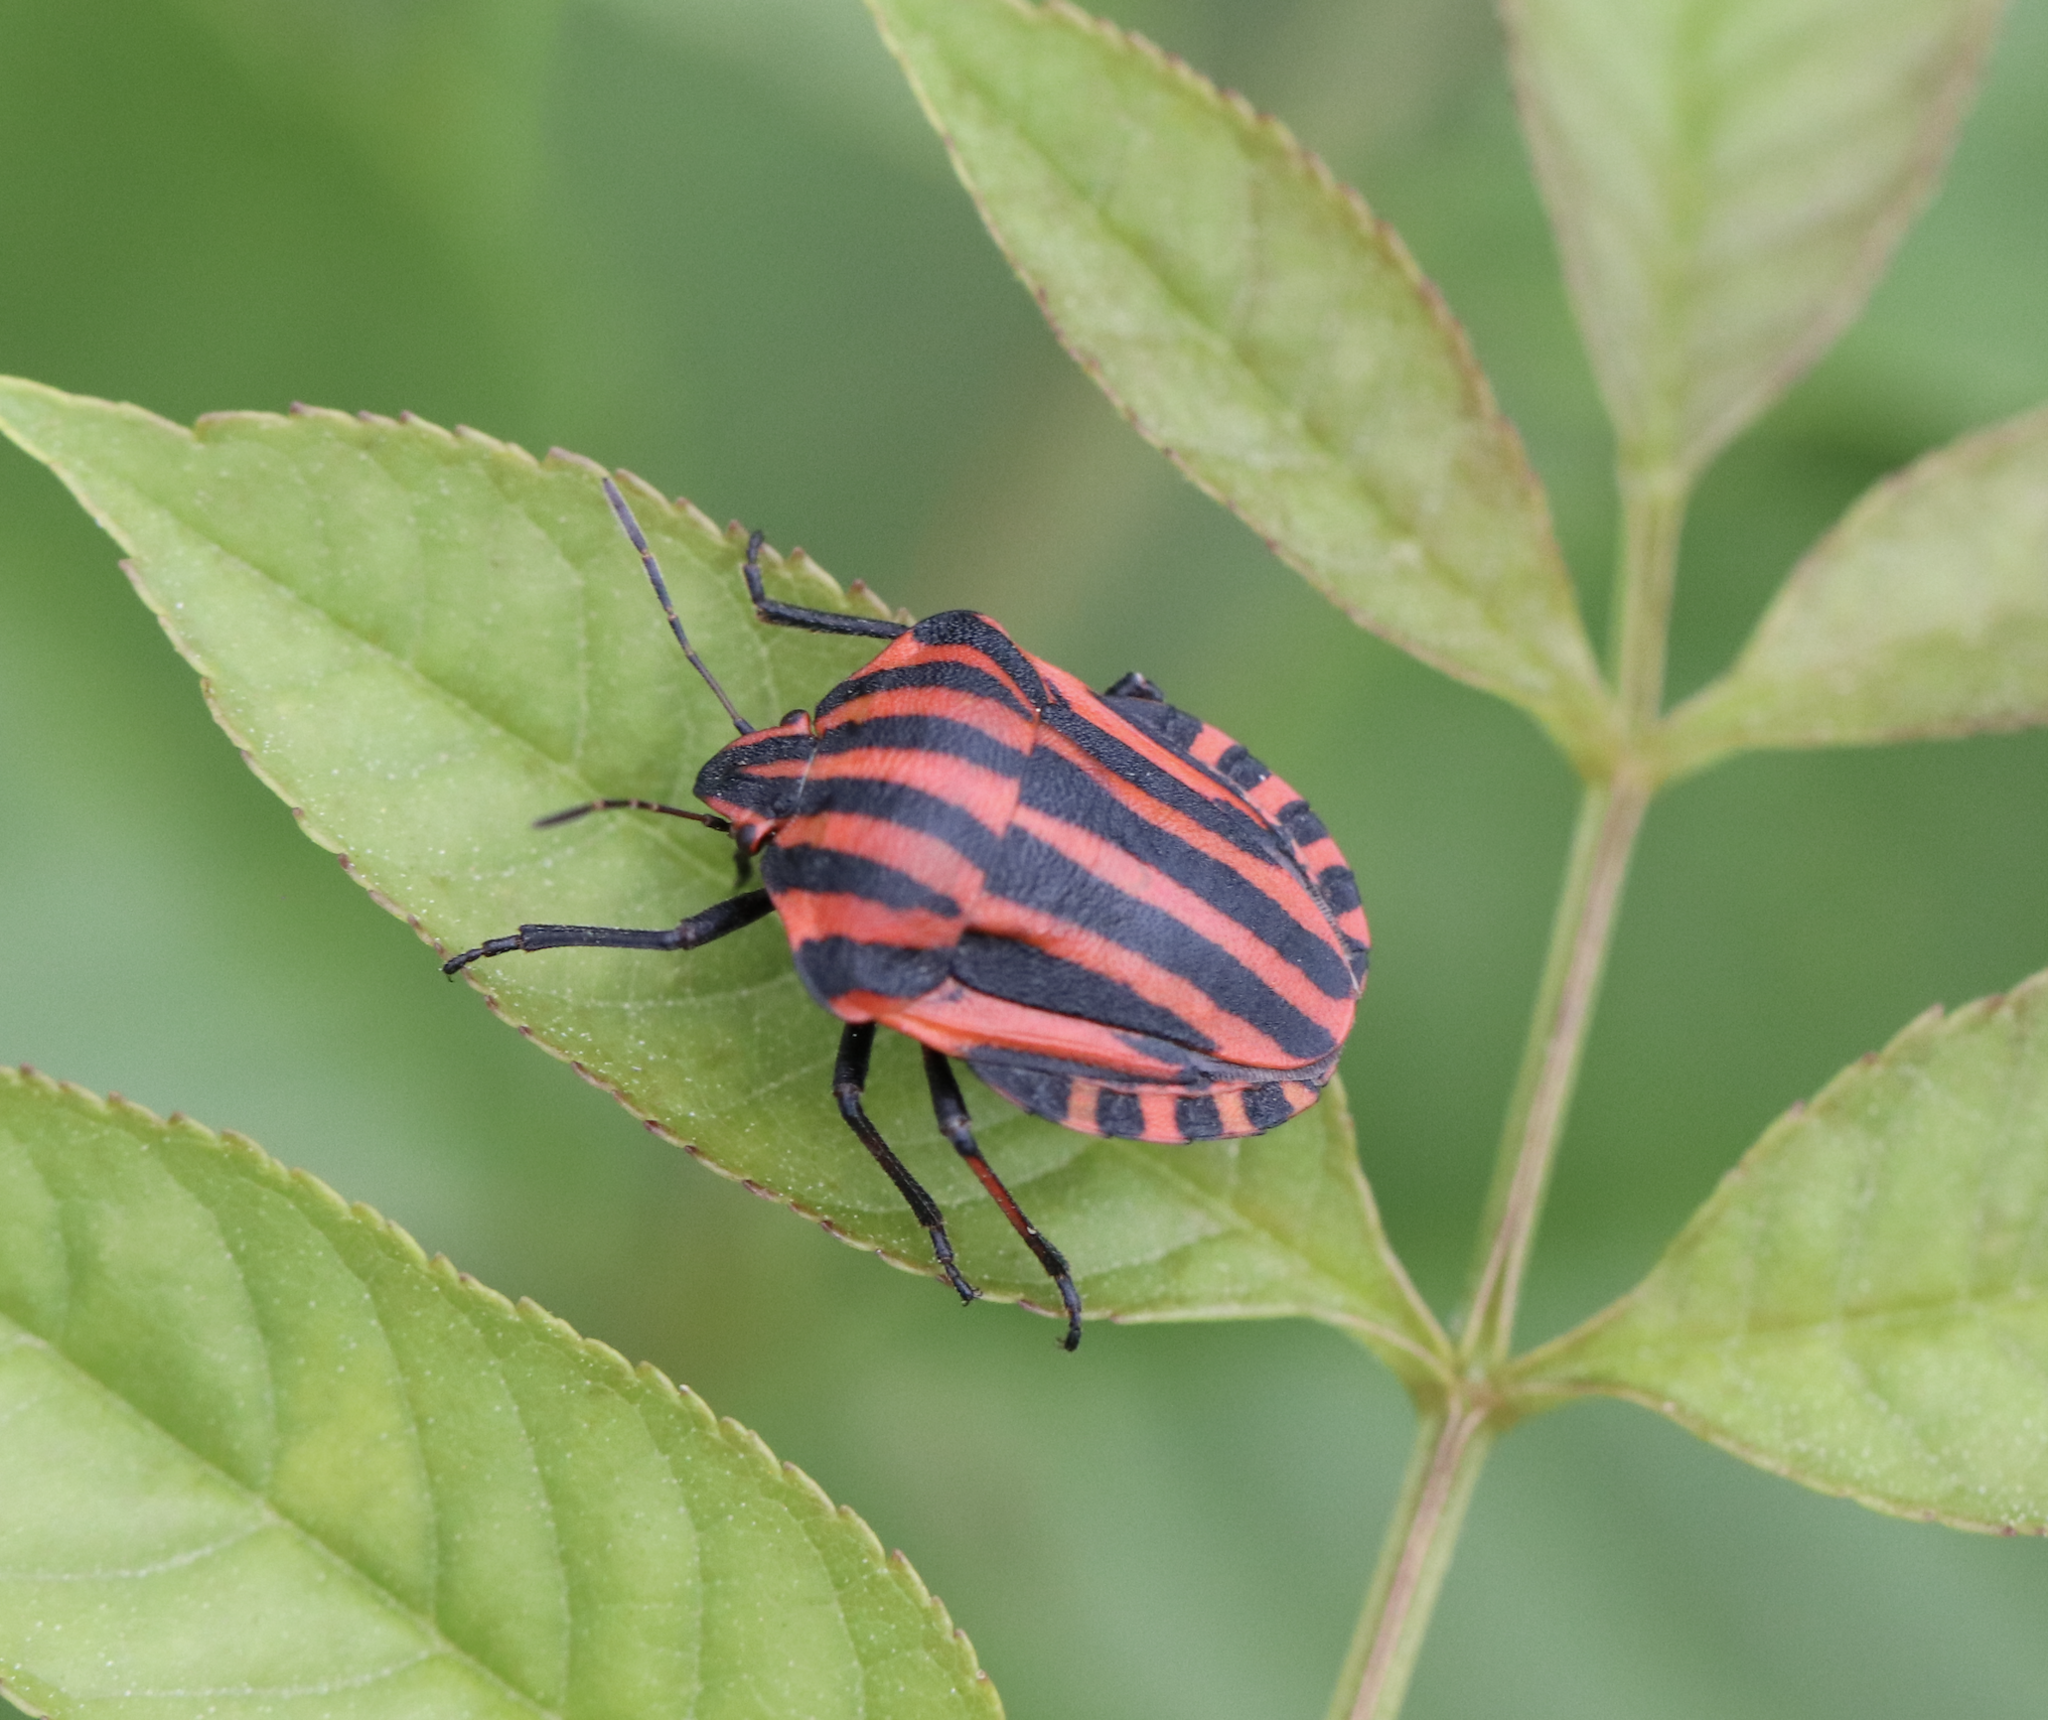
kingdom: Animalia
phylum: Arthropoda
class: Insecta
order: Hemiptera
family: Pentatomidae
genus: Graphosoma
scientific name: Graphosoma italicum
